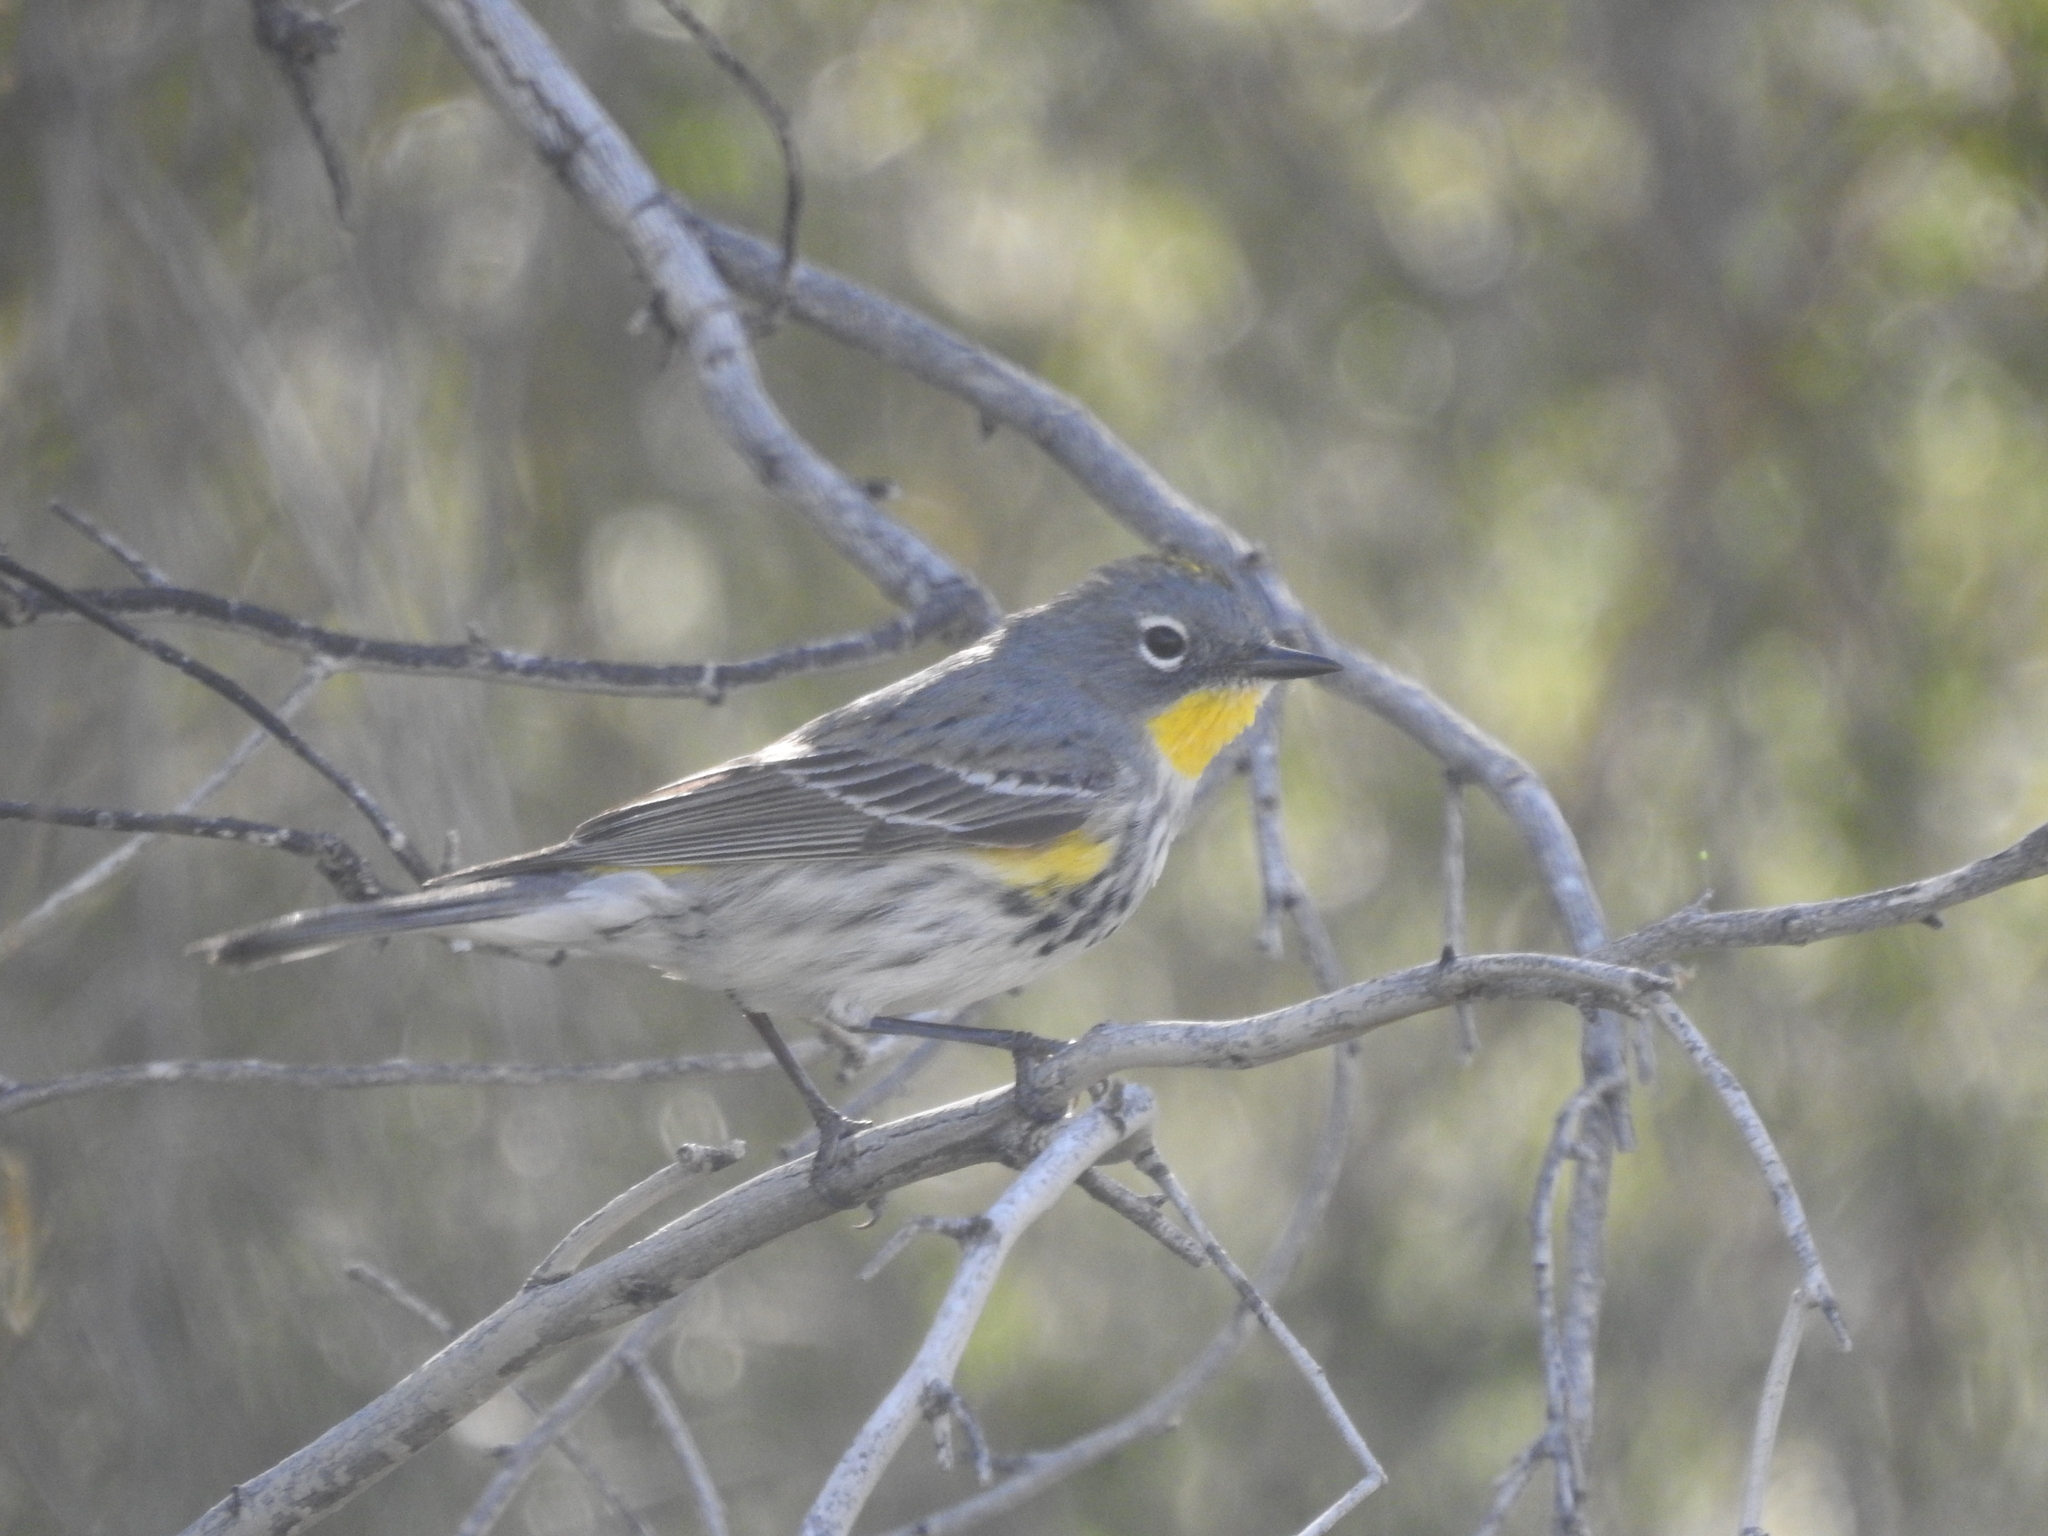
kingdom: Animalia
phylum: Chordata
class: Aves
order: Passeriformes
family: Parulidae
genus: Setophaga
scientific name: Setophaga coronata
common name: Myrtle warbler
